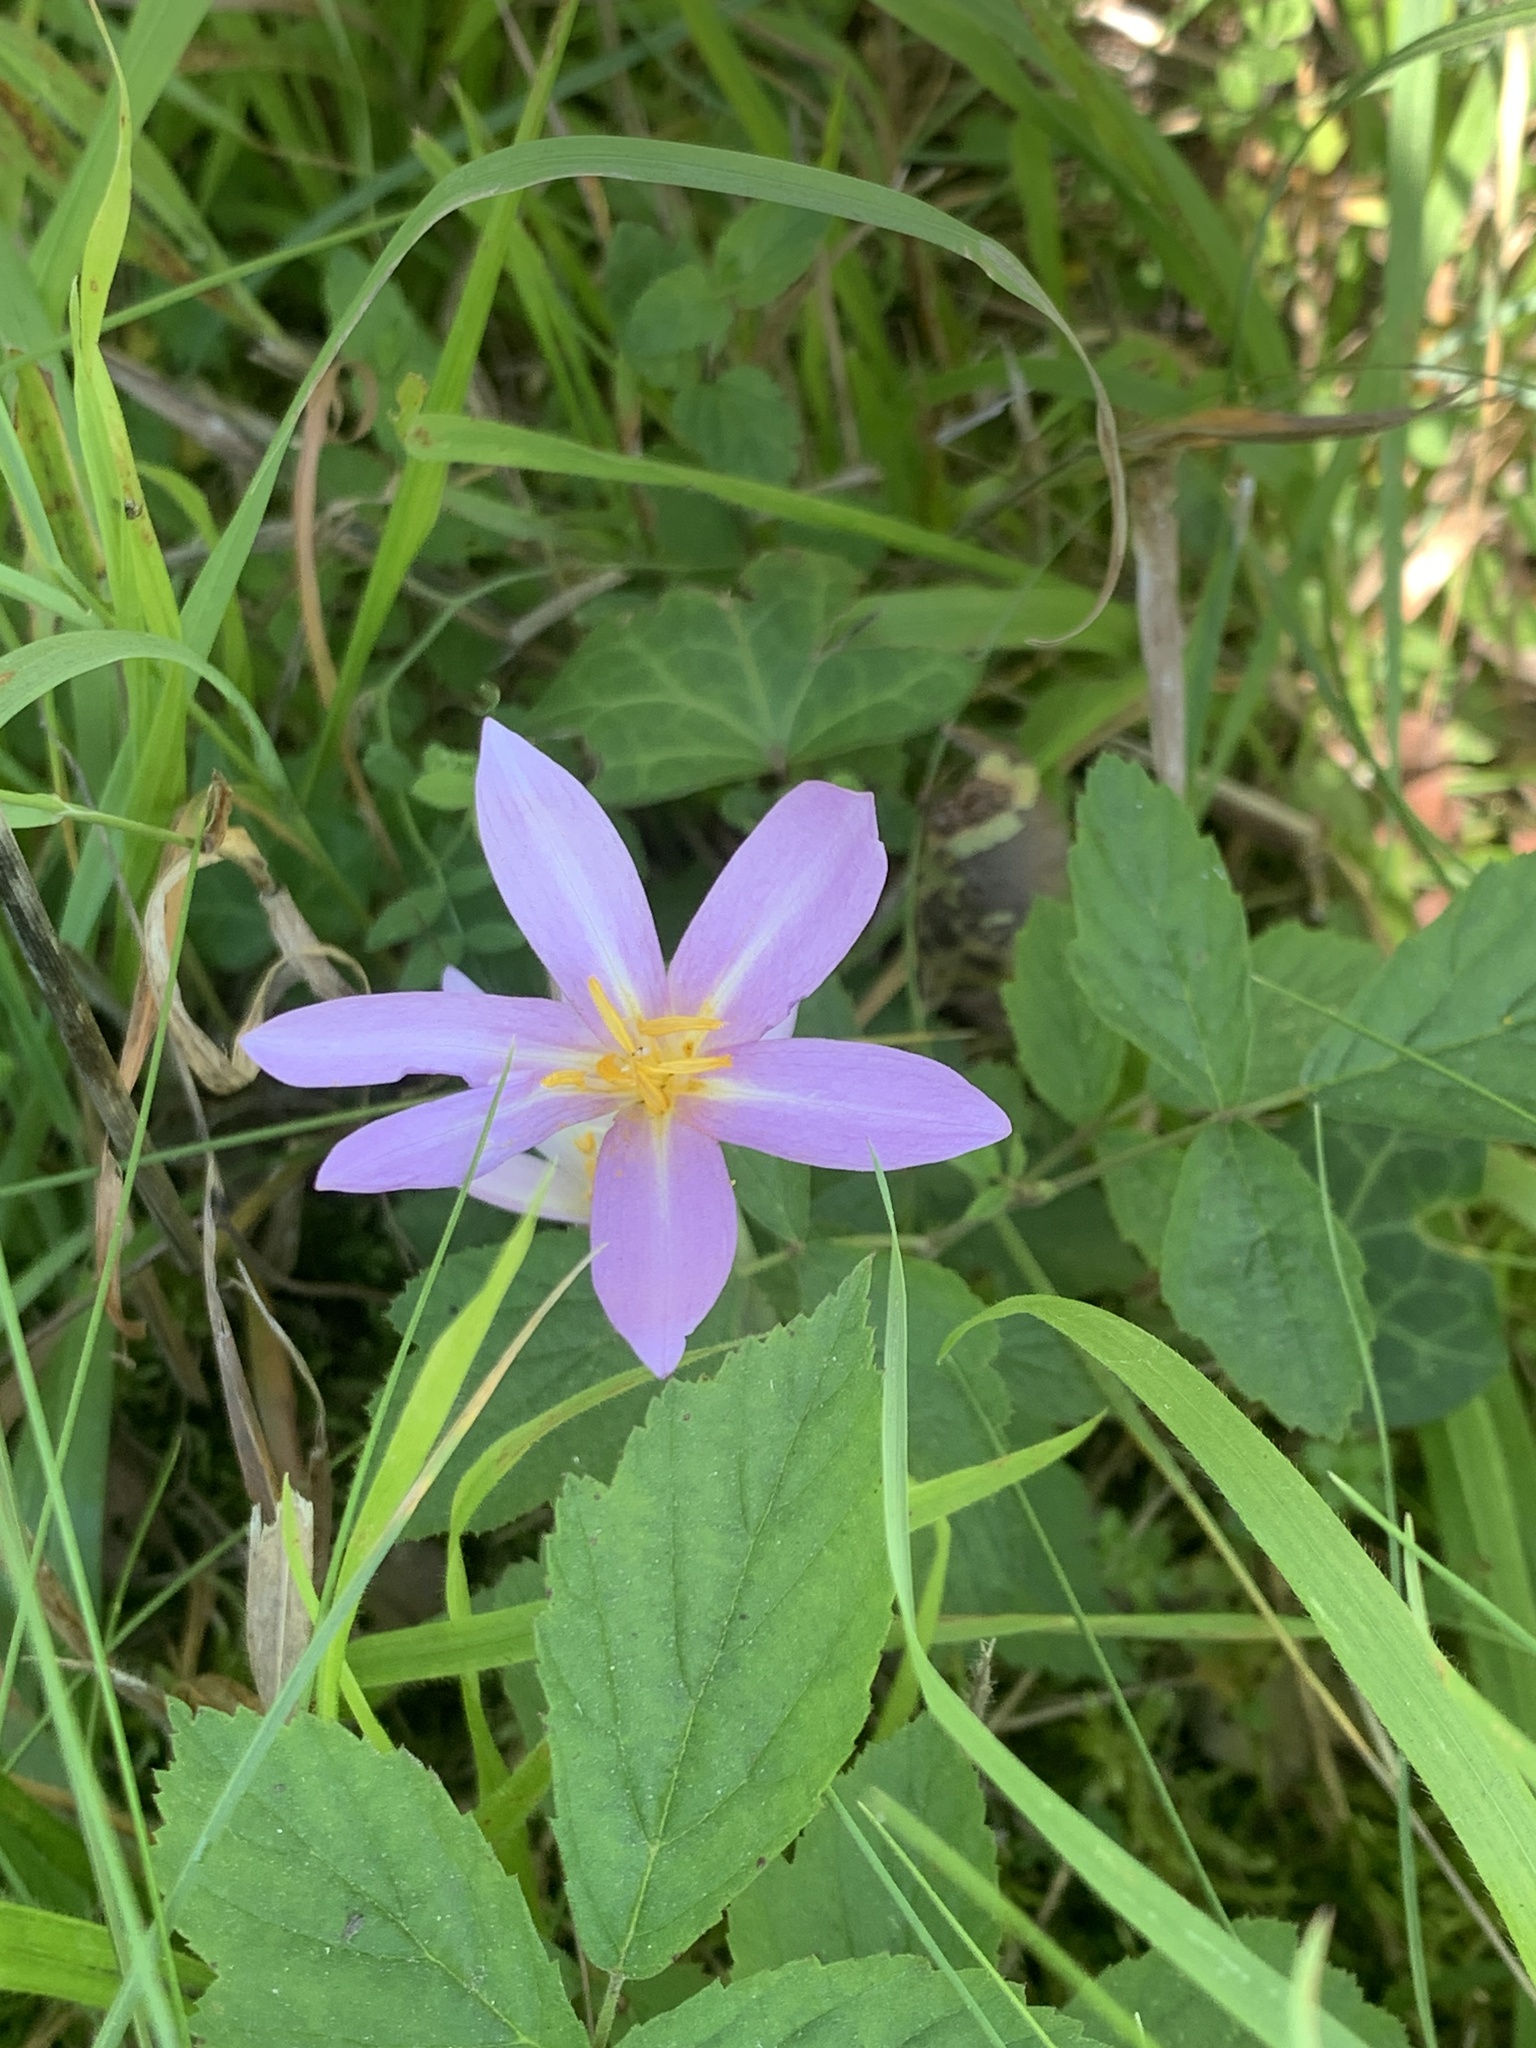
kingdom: Plantae
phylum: Tracheophyta
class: Liliopsida
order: Liliales
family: Colchicaceae
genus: Colchicum
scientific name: Colchicum autumnale
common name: Autumn crocus
